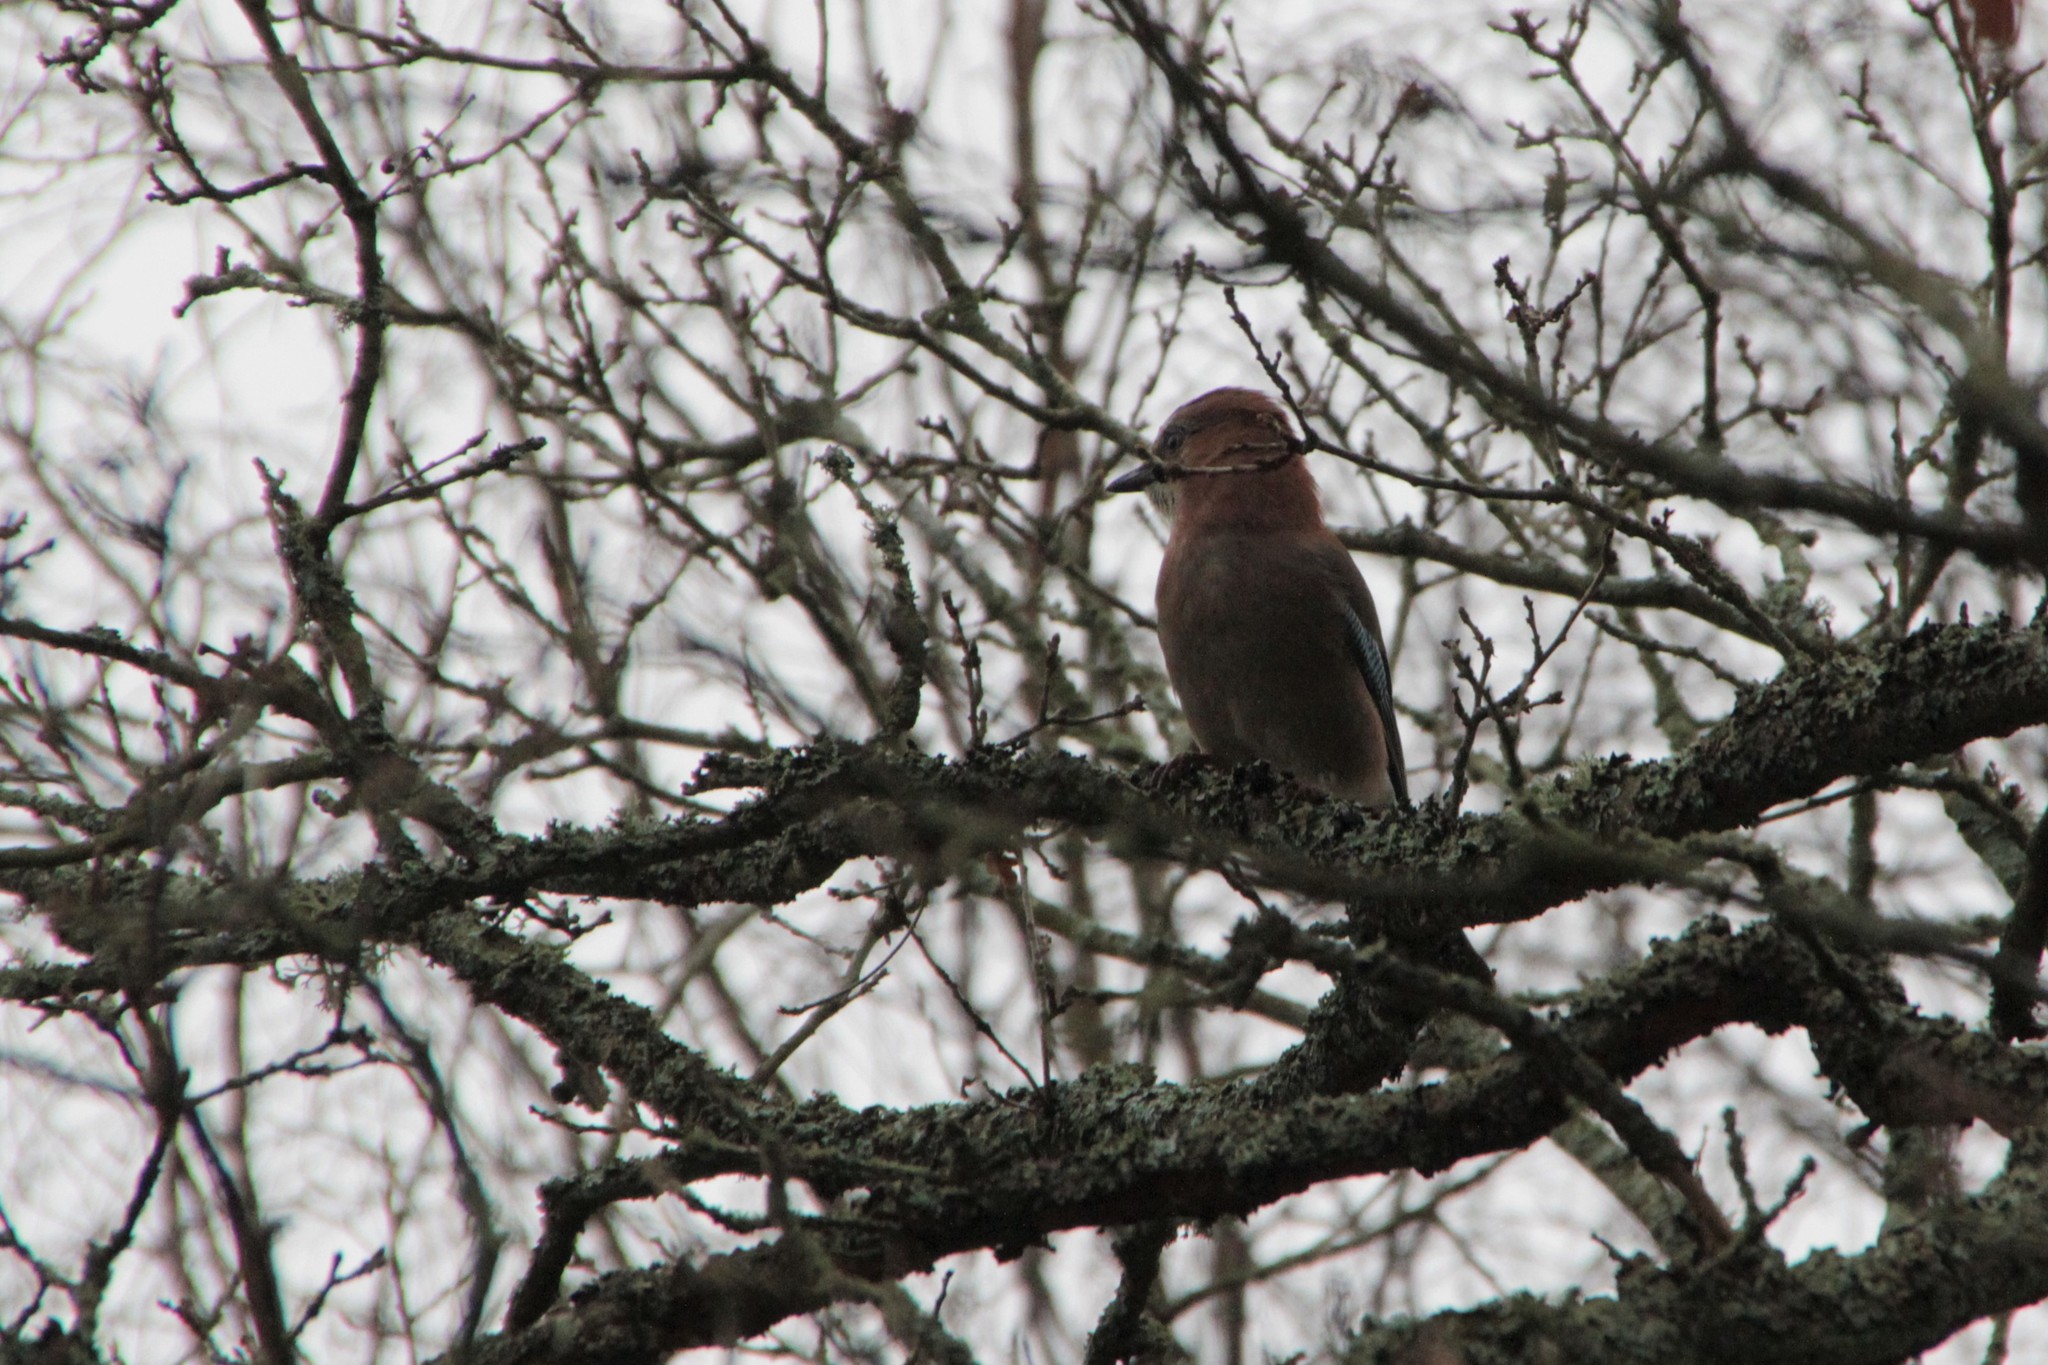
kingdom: Animalia
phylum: Chordata
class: Aves
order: Passeriformes
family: Corvidae
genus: Garrulus
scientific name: Garrulus glandarius
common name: Eurasian jay
